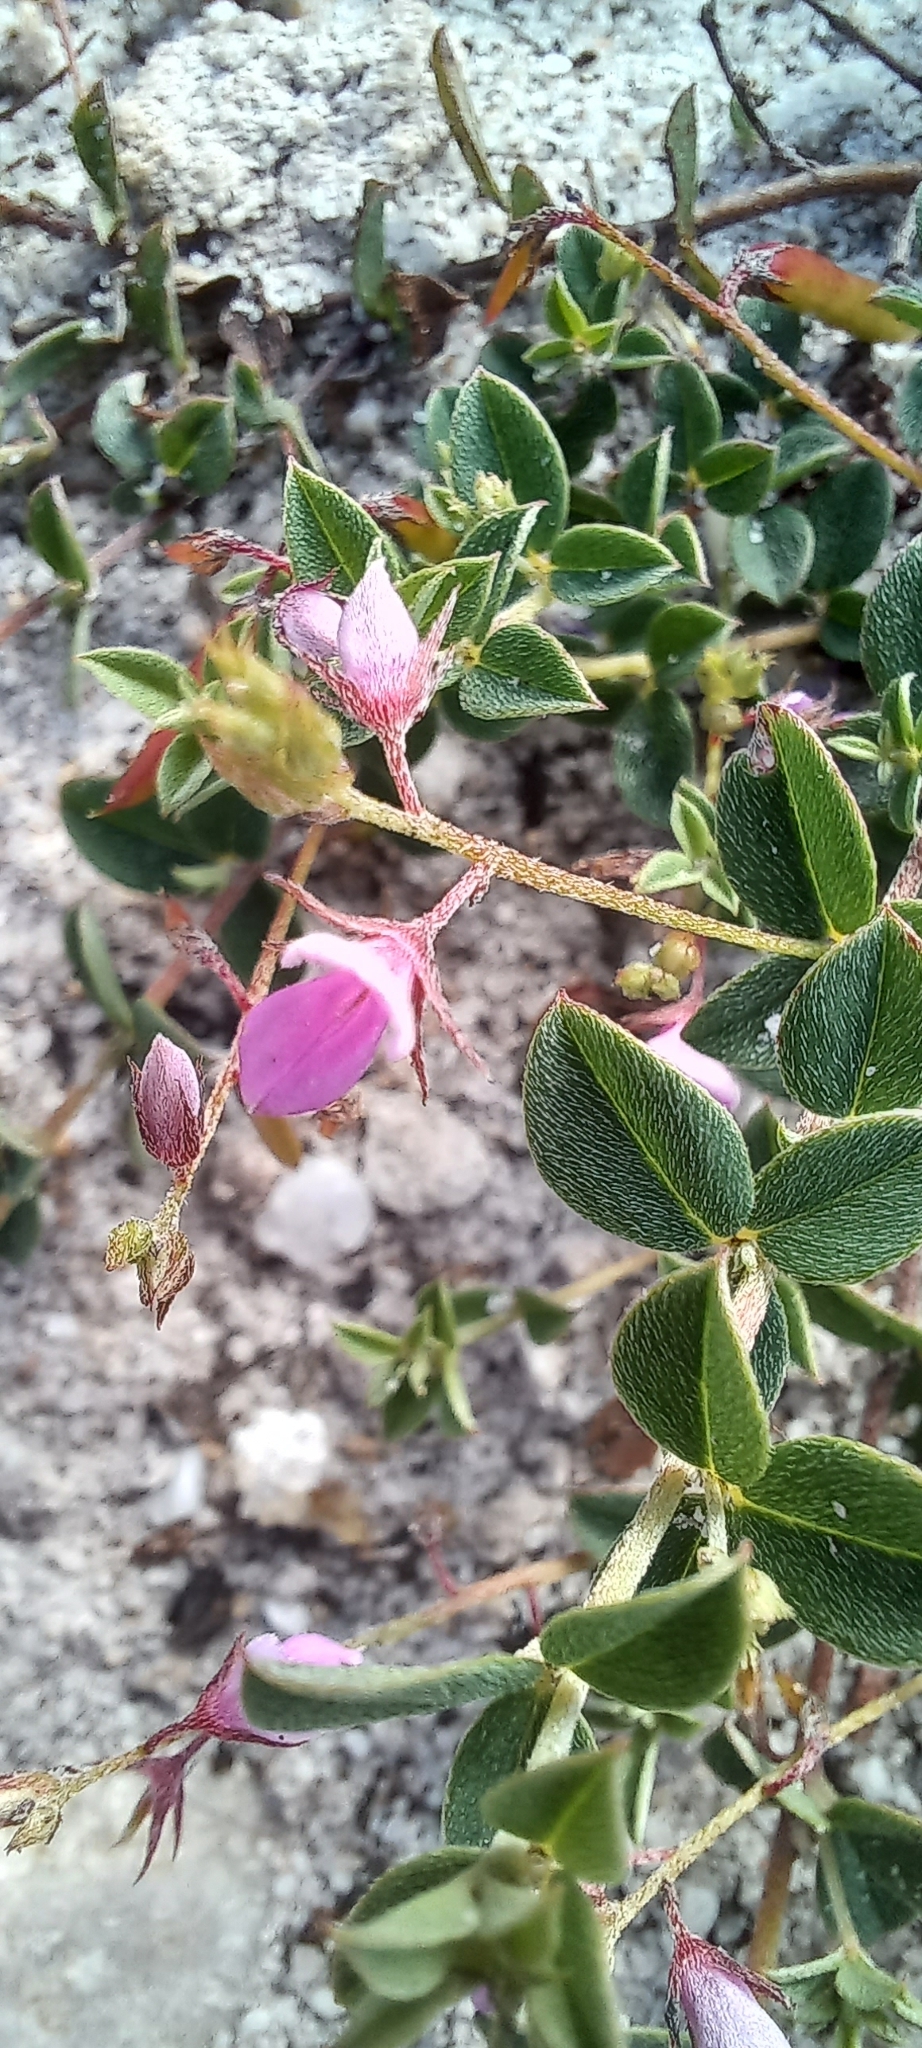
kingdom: Plantae
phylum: Tracheophyta
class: Magnoliopsida
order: Fabales
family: Fabaceae
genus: Indigofera
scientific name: Indigofera sarmentosa
